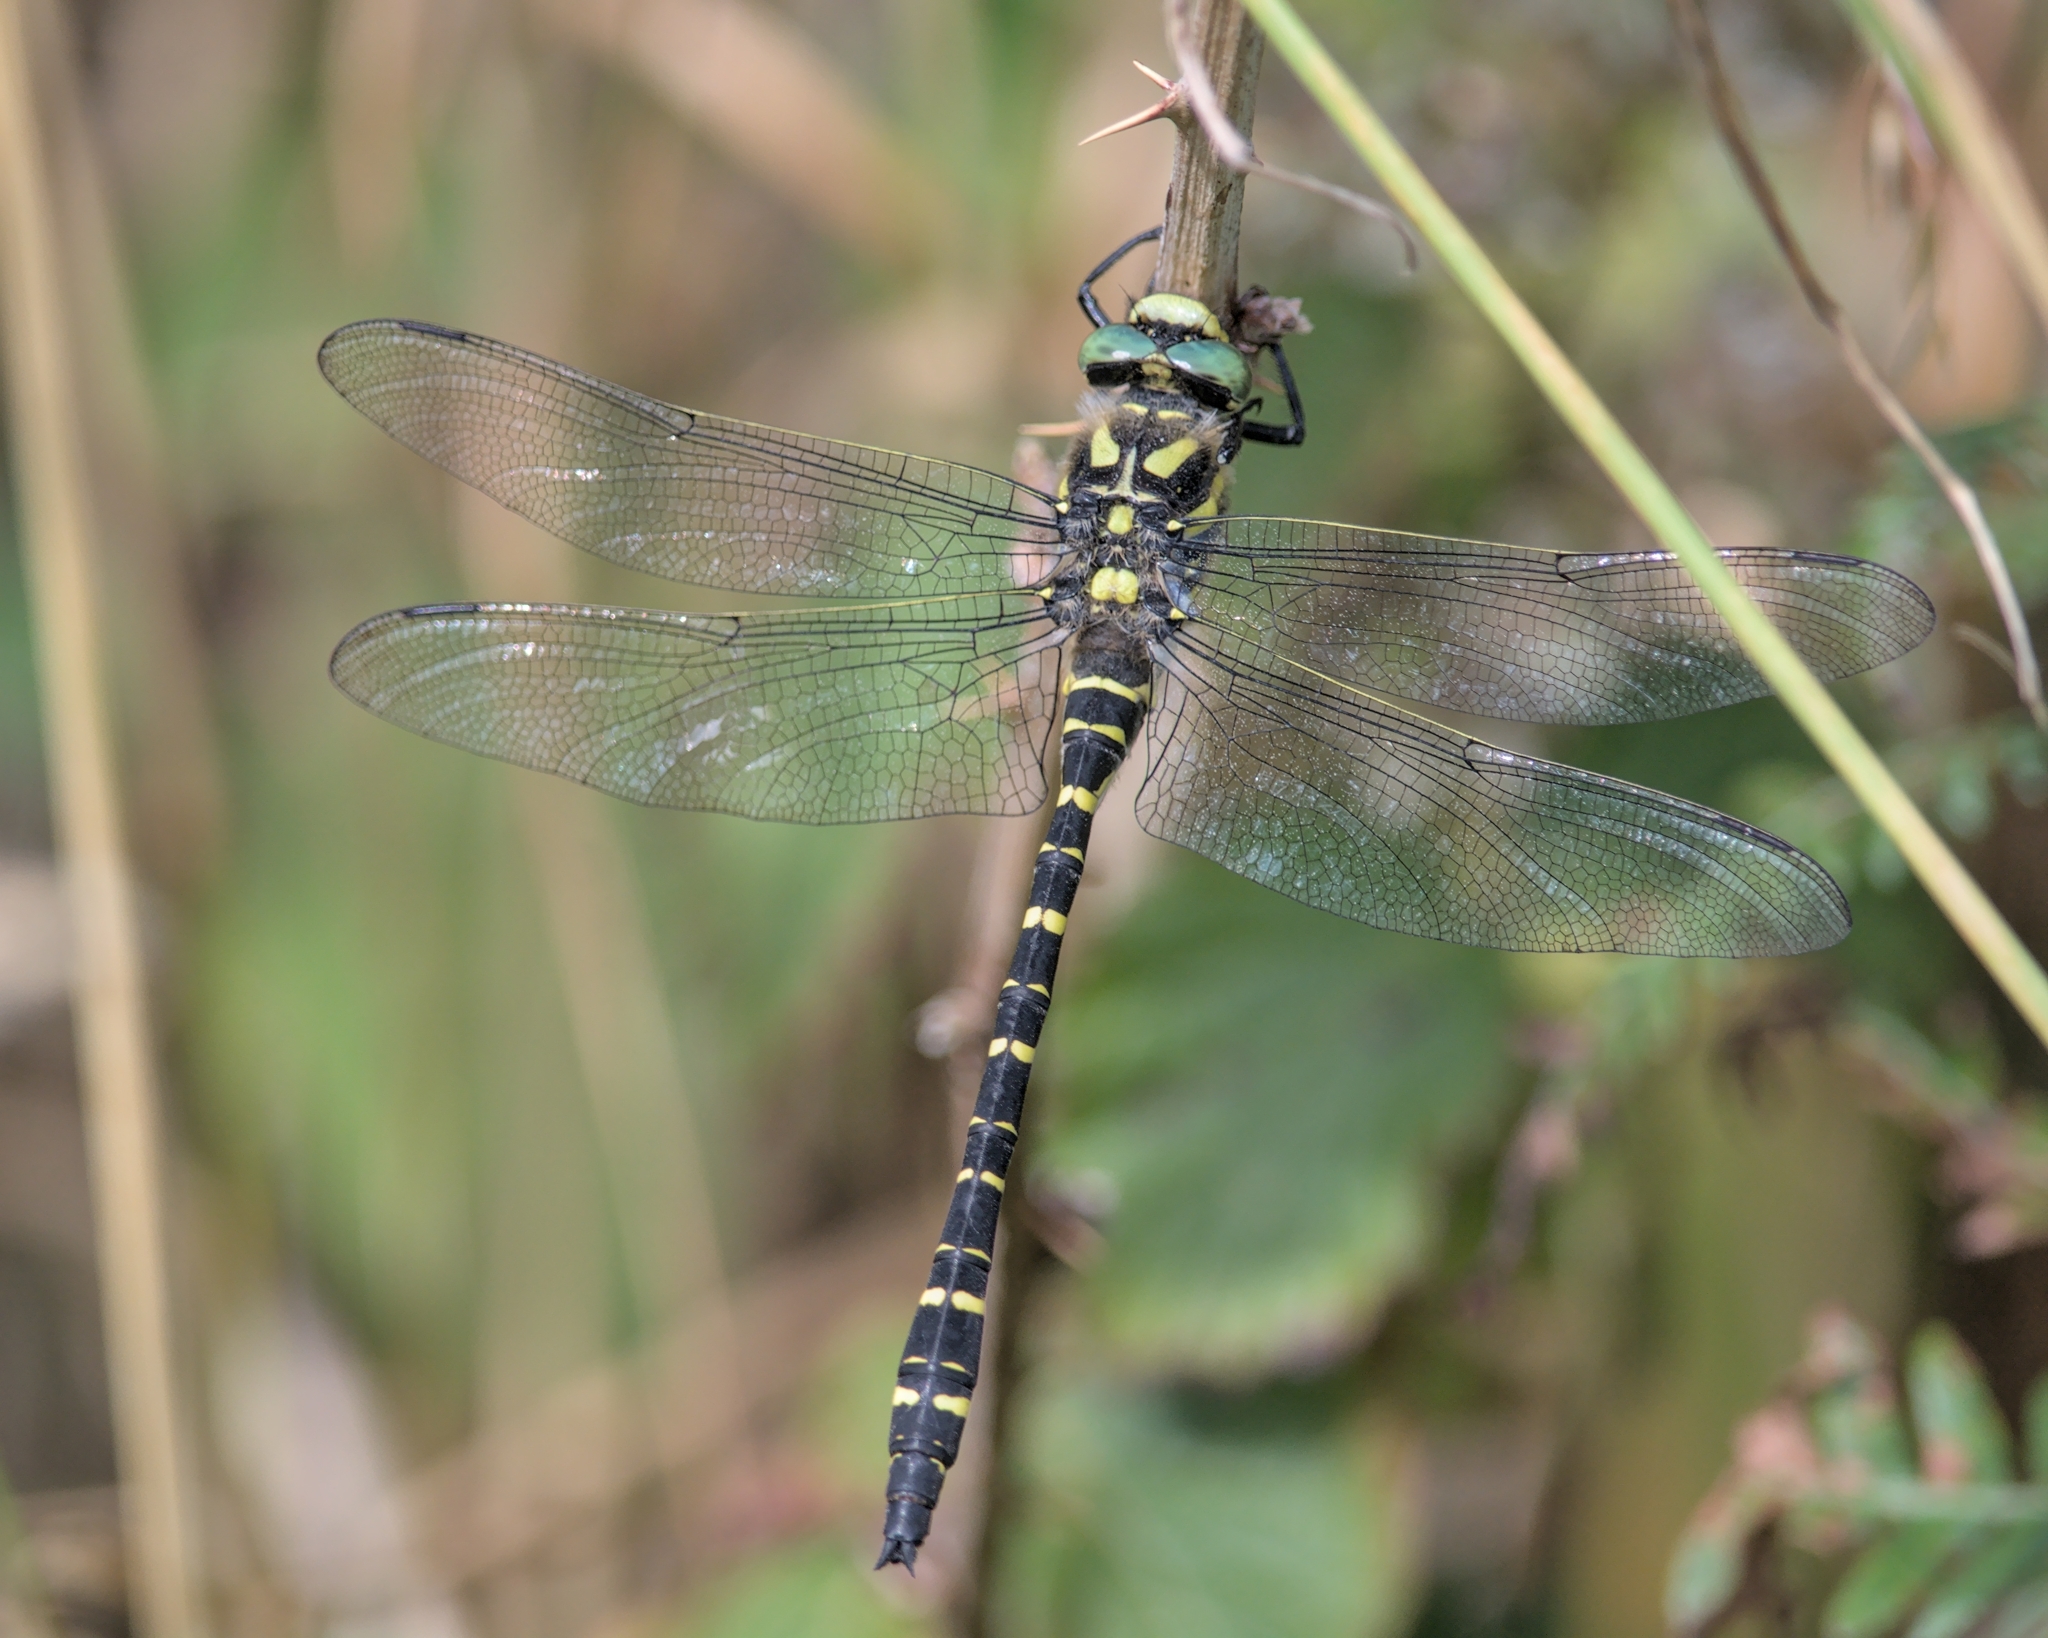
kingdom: Animalia
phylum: Arthropoda
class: Insecta
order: Odonata
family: Cordulegastridae
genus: Cordulegaster
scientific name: Cordulegaster boltonii
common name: Golden-ringed dragonfly
